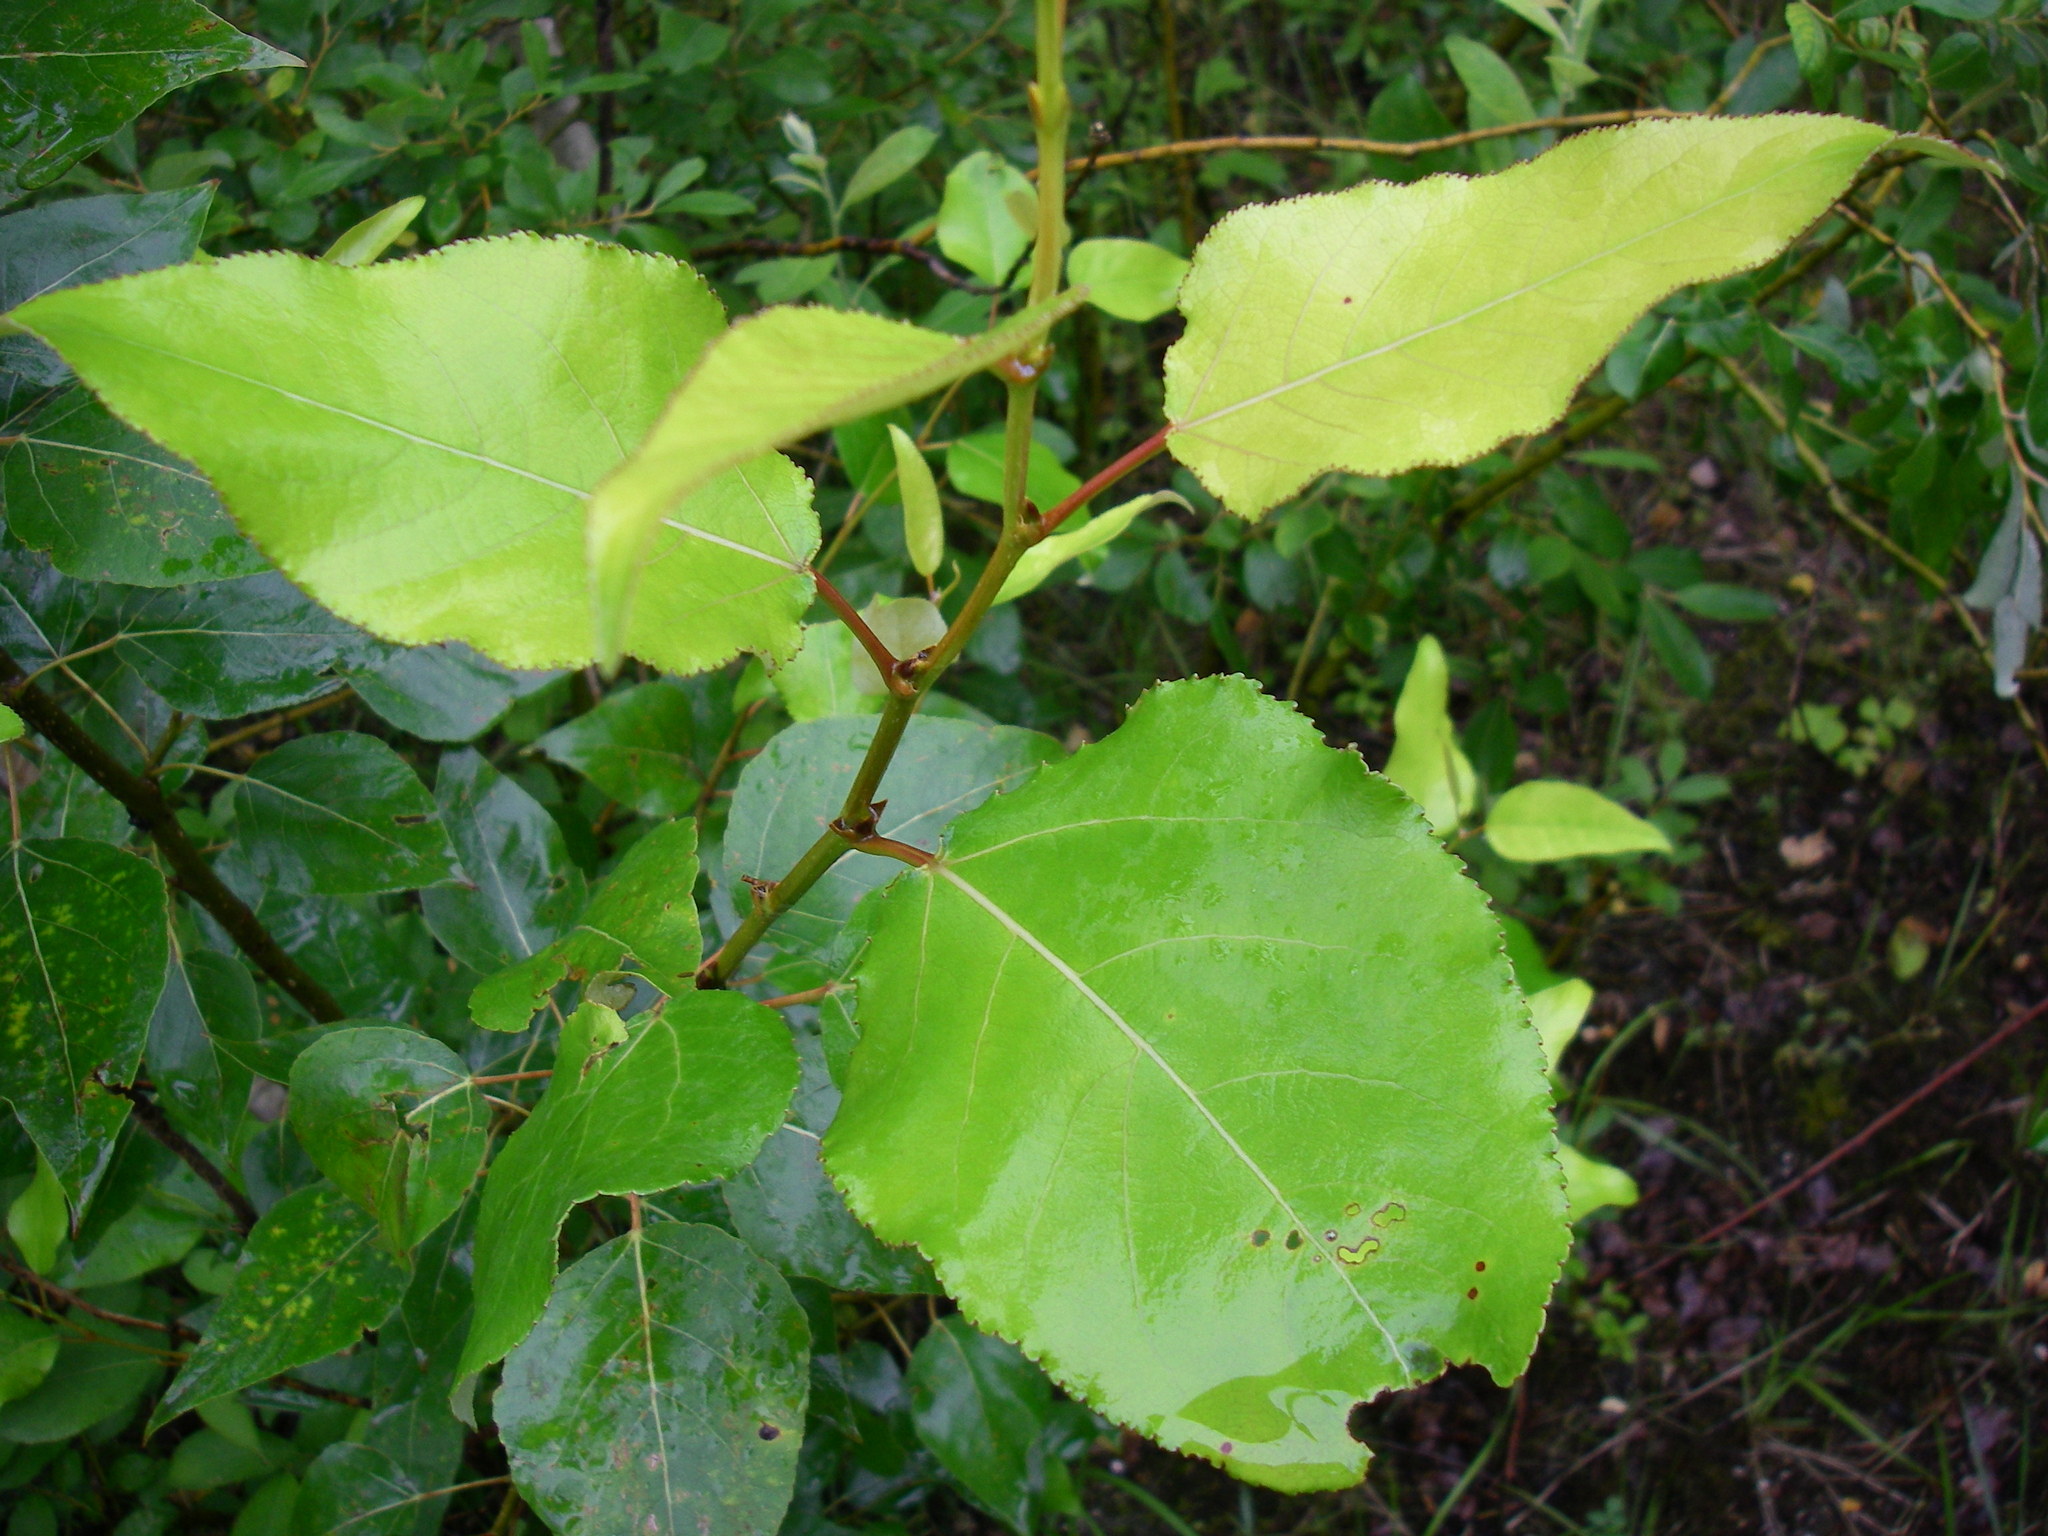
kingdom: Plantae
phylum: Tracheophyta
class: Magnoliopsida
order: Malpighiales
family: Salicaceae
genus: Populus
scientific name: Populus trichocarpa
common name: Black cottonwood
